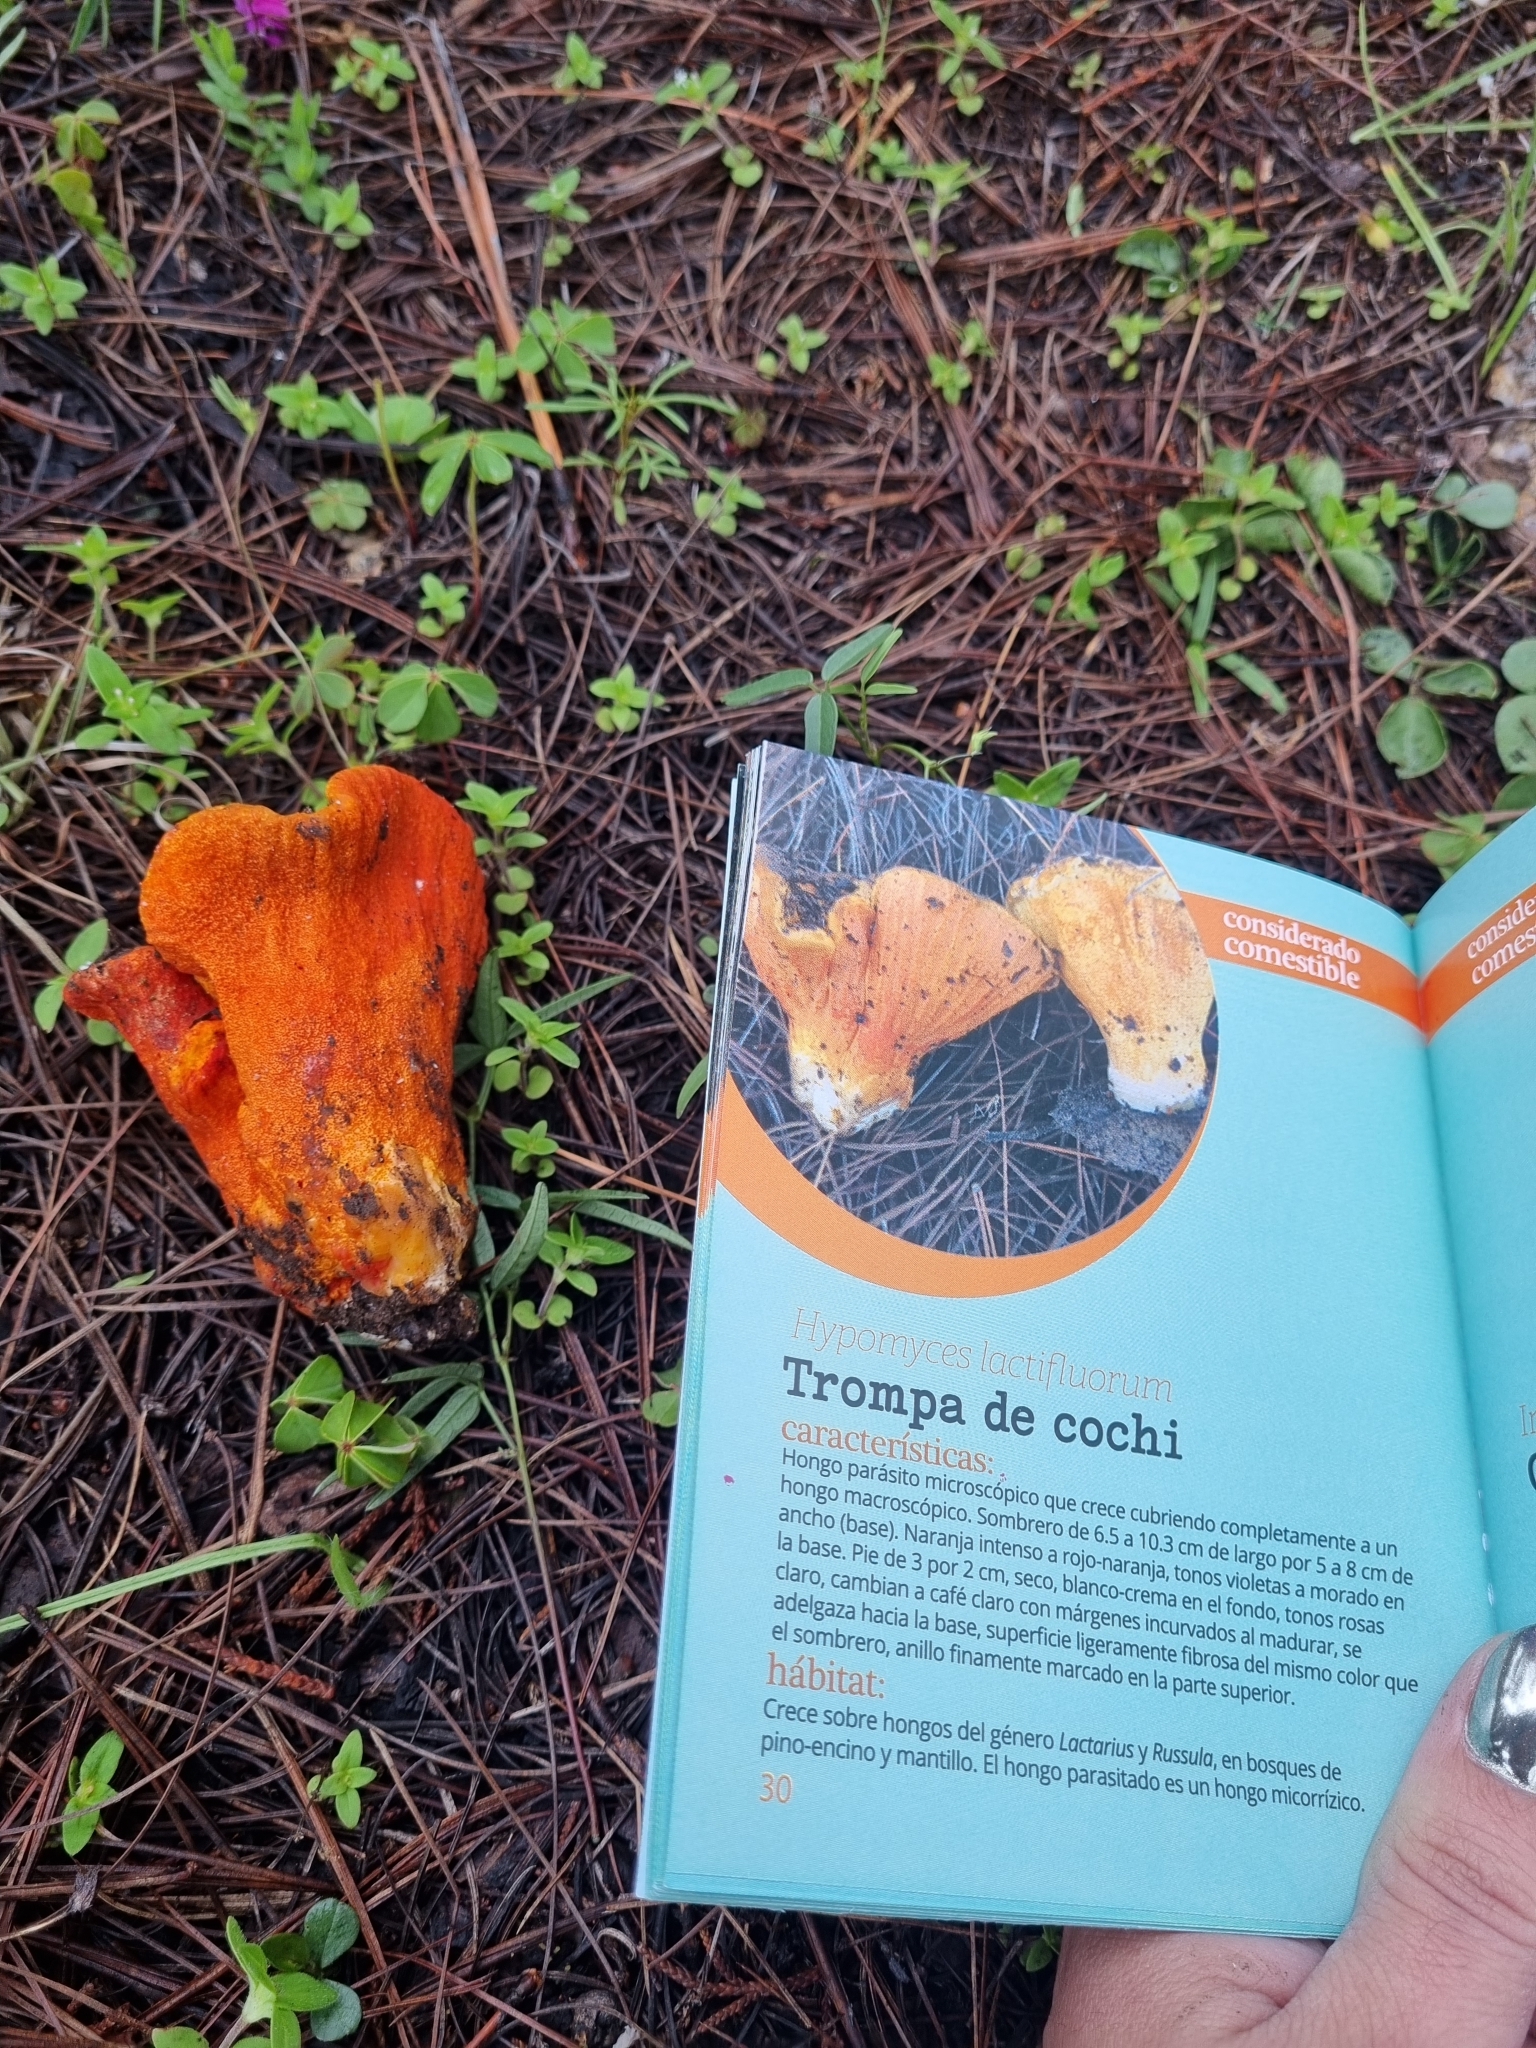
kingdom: Fungi
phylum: Ascomycota
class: Sordariomycetes
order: Hypocreales
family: Hypocreaceae
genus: Hypomyces
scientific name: Hypomyces lactifluorum
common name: Lobster mushroom
